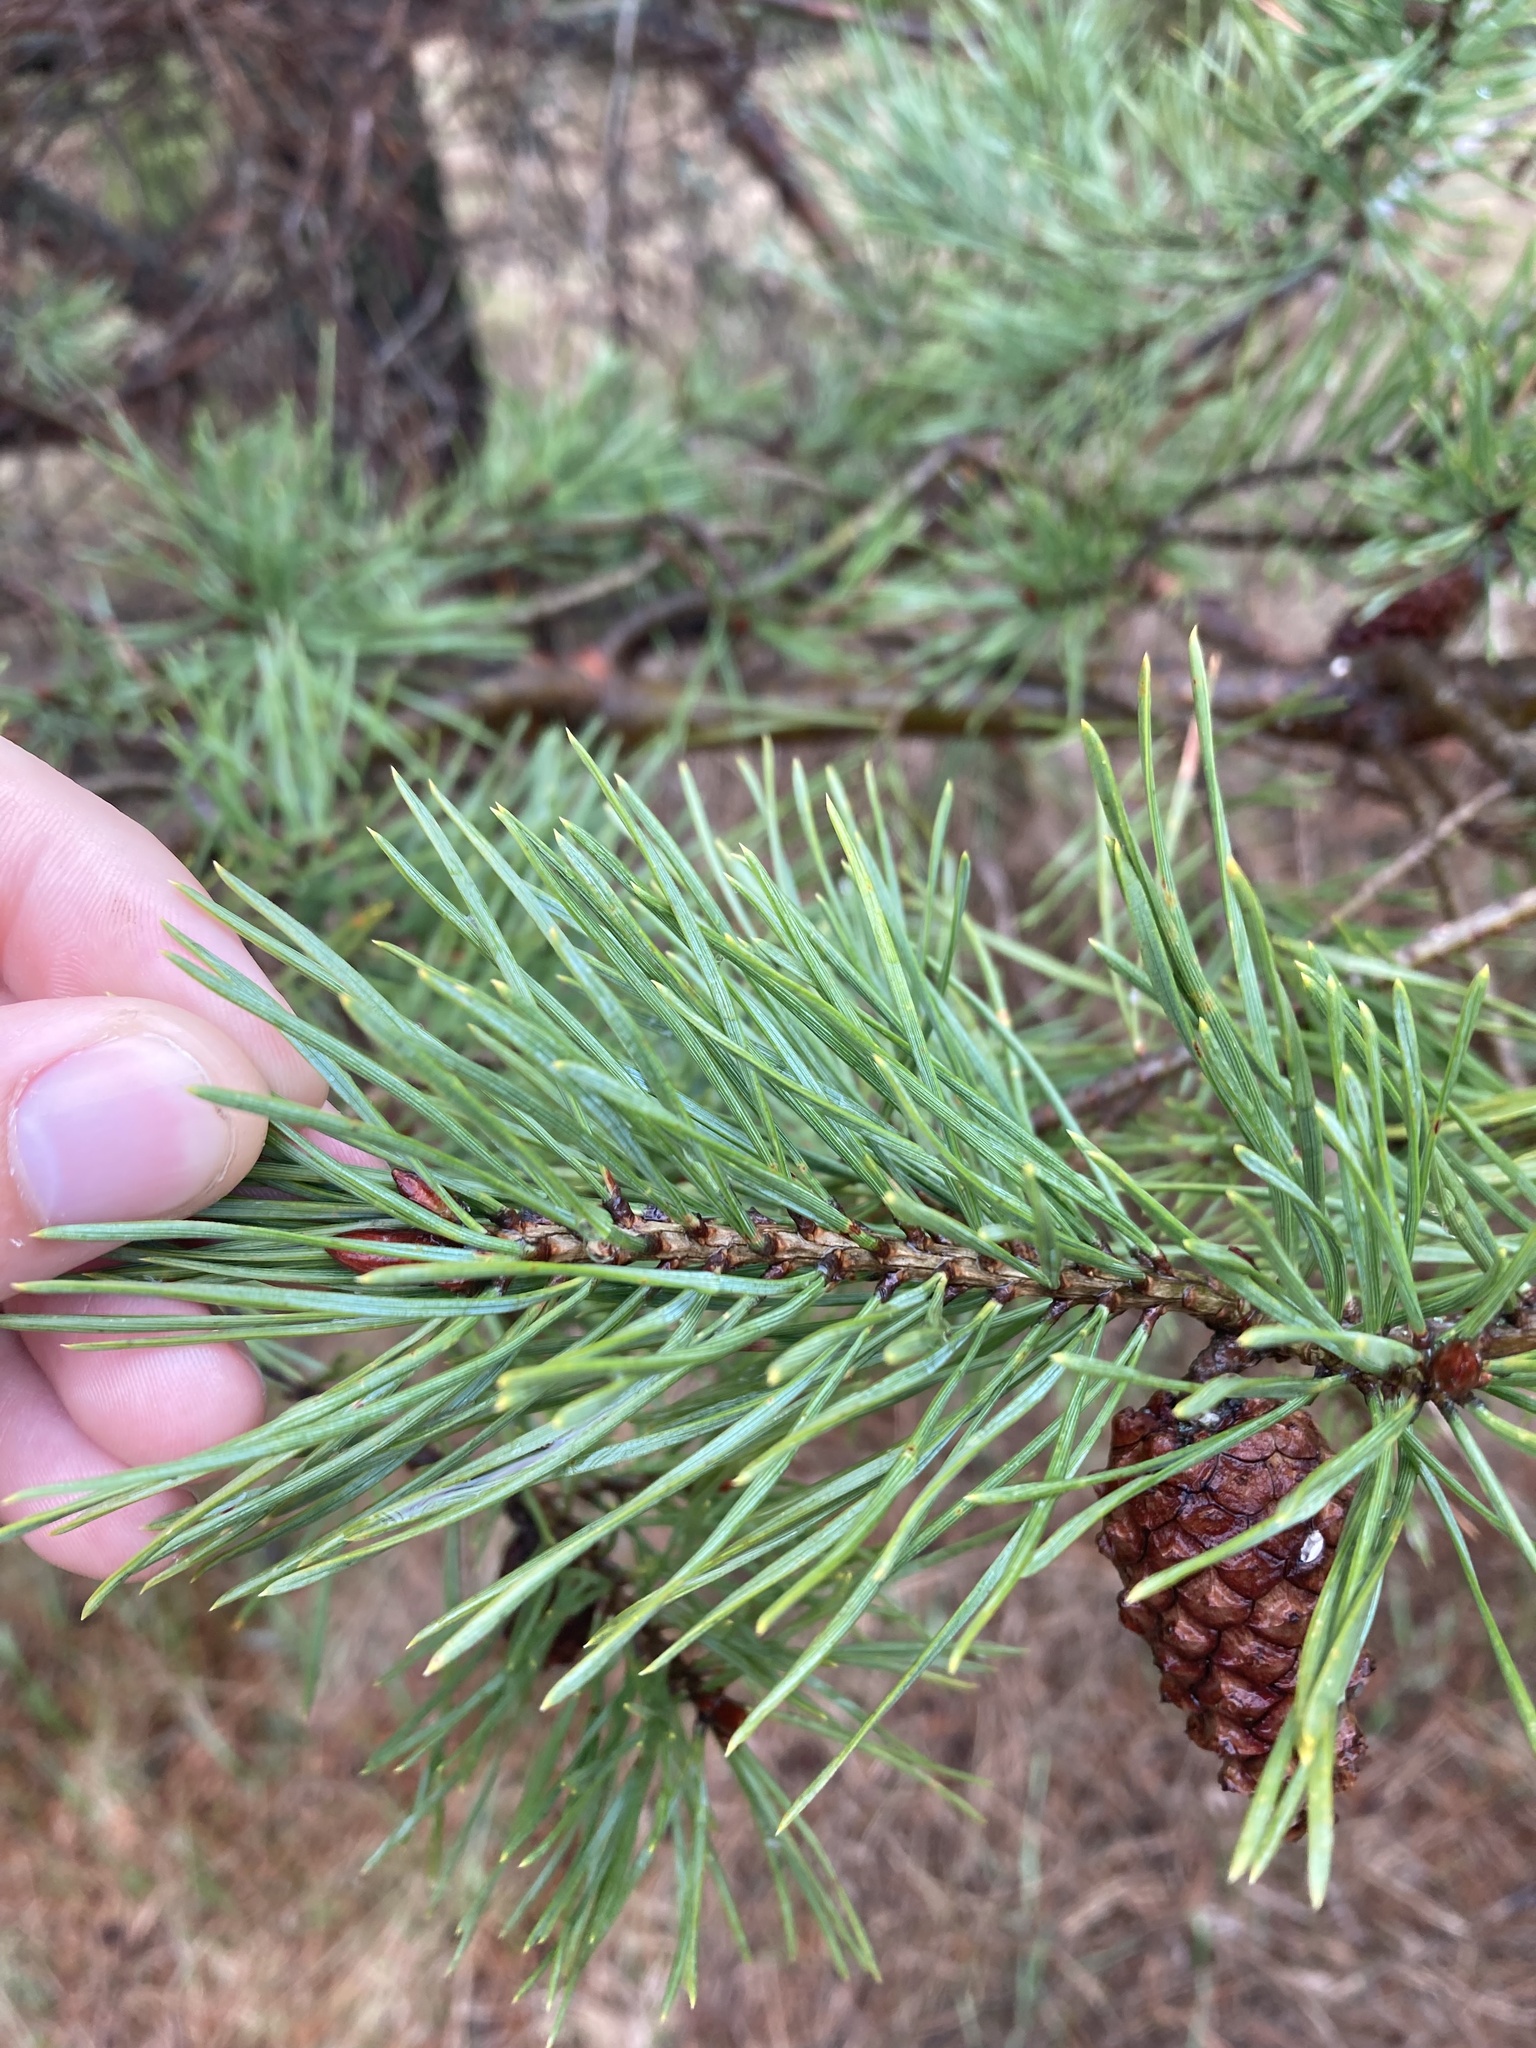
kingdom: Plantae
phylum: Tracheophyta
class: Pinopsida
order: Pinales
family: Pinaceae
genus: Pinus
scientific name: Pinus sylvestris
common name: Scots pine
